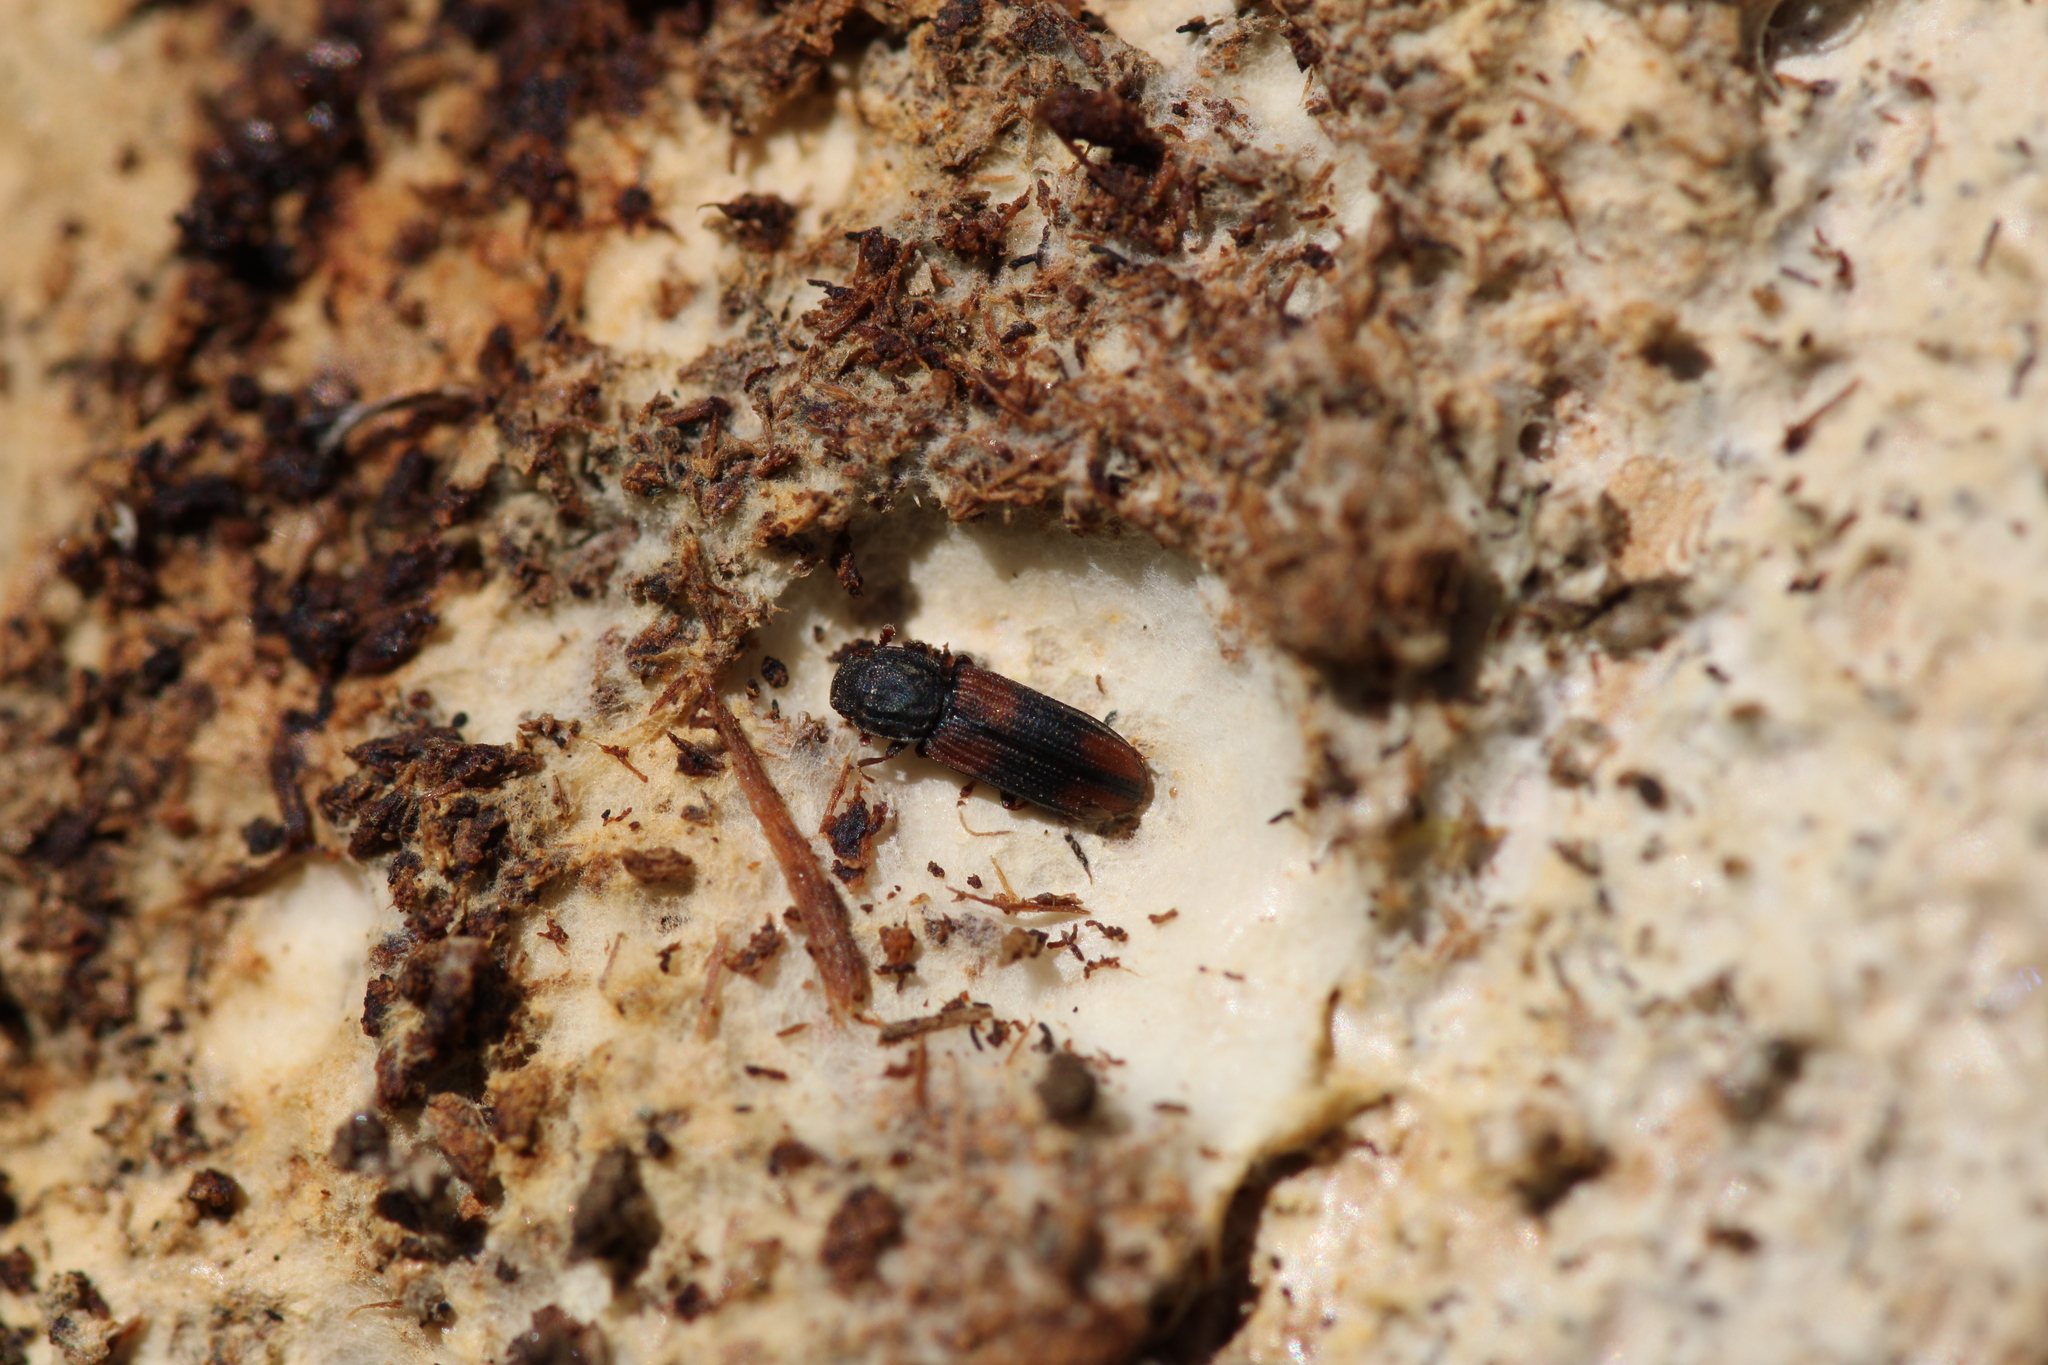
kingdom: Animalia
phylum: Arthropoda
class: Insecta
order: Coleoptera
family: Zopheridae
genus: Bitoma
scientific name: Bitoma crenata
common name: Bark beetle
